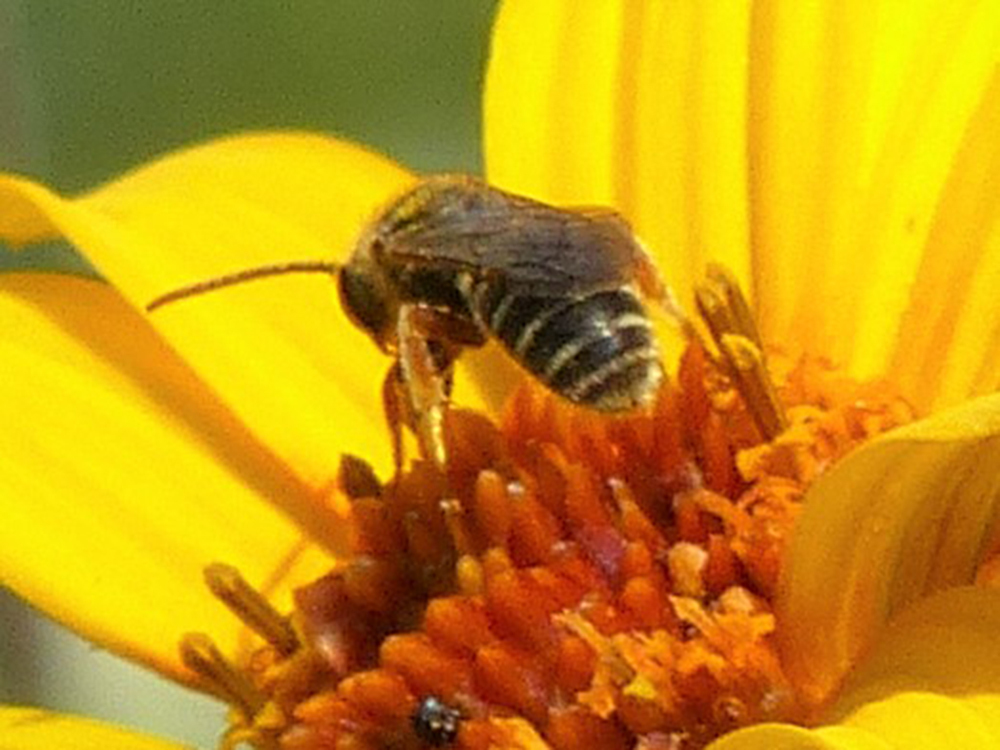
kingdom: Animalia
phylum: Arthropoda
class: Insecta
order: Hymenoptera
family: Halictidae
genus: Halictus
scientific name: Halictus ligatus
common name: Ligated furrow bee
